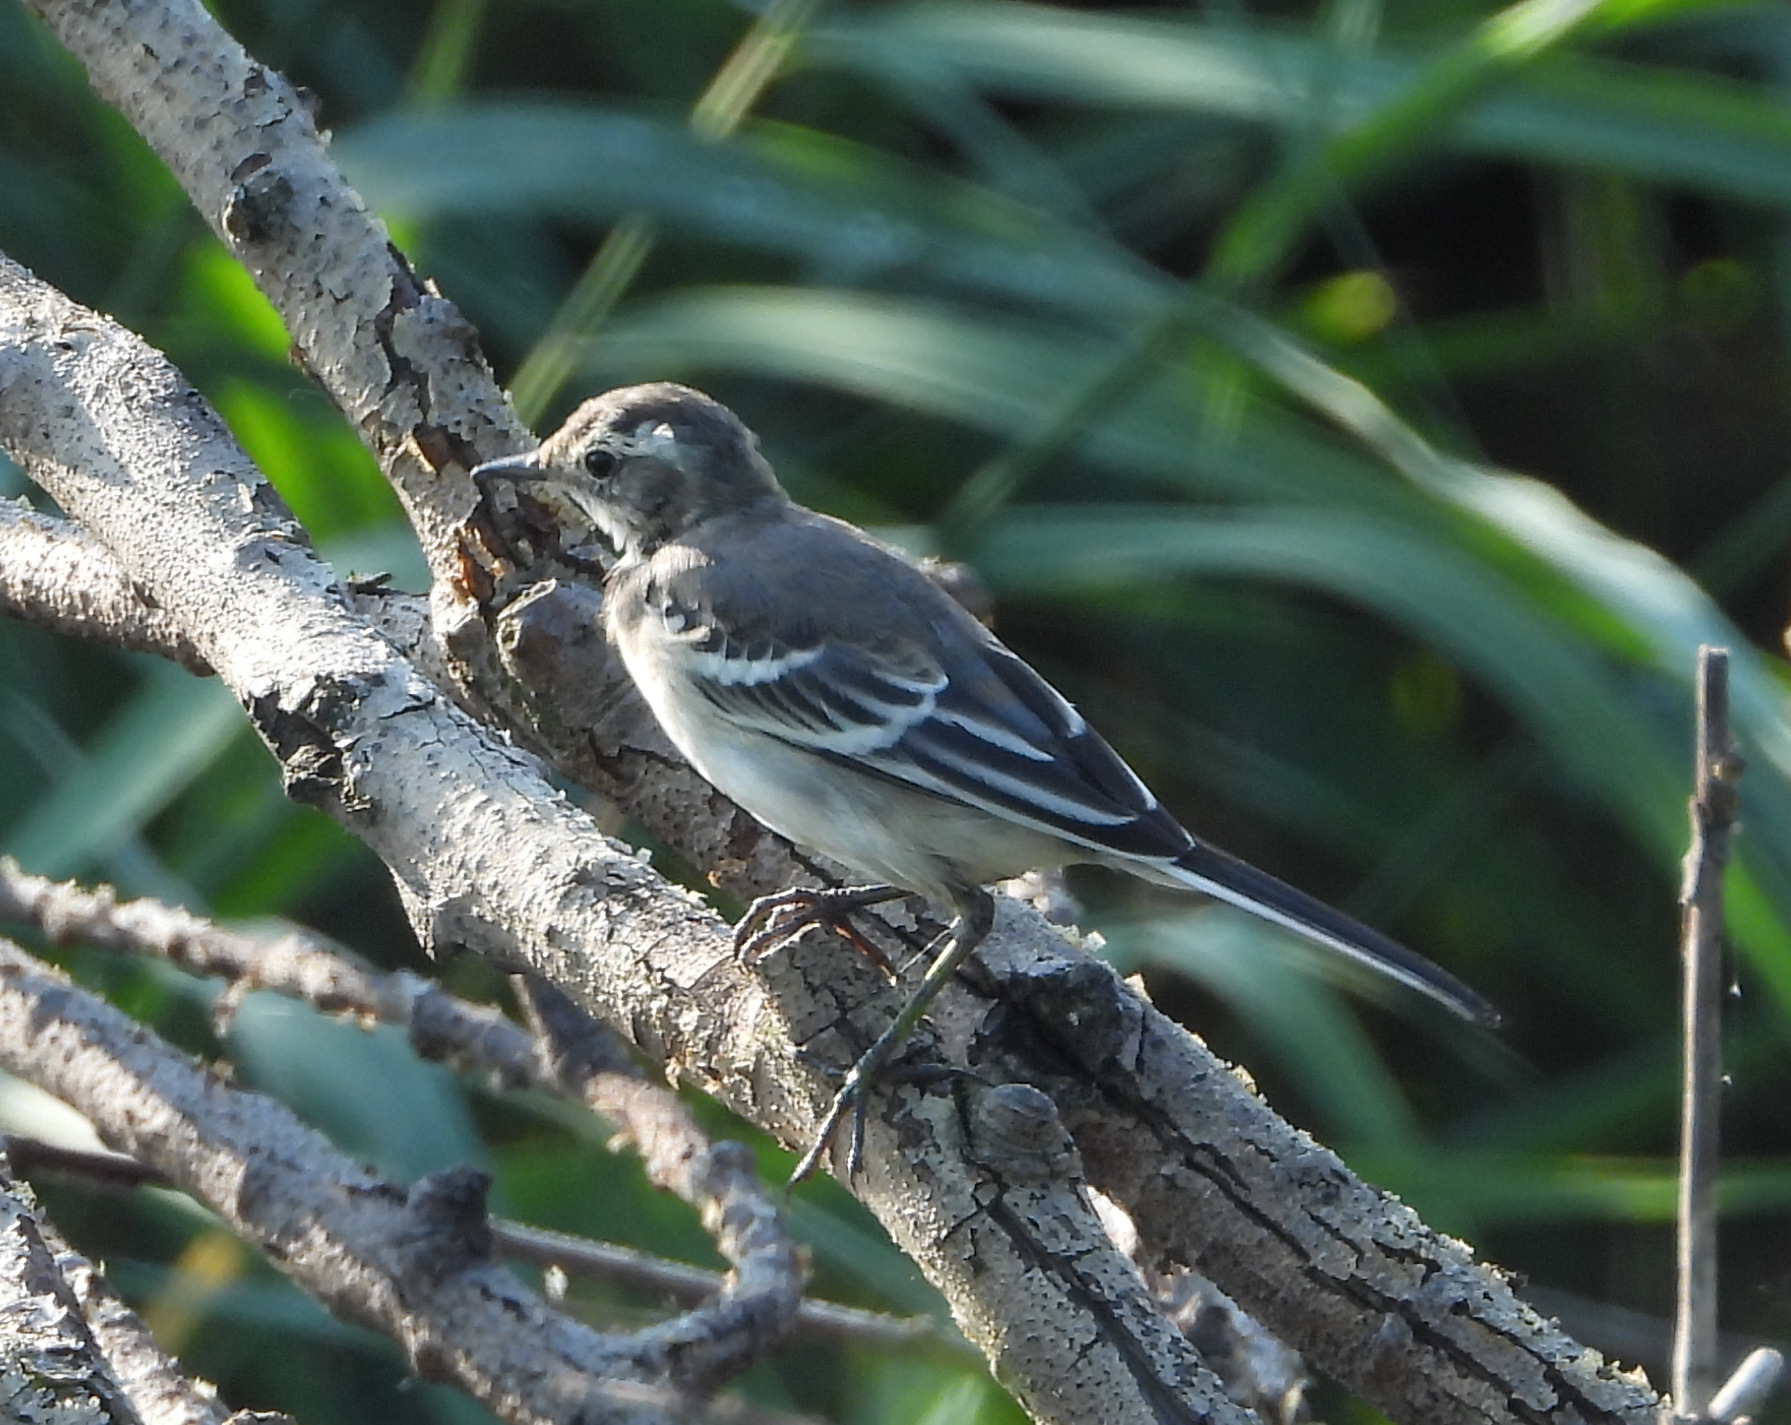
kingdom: Animalia
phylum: Chordata
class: Aves
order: Passeriformes
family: Motacillidae
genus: Motacilla
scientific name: Motacilla alba
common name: White wagtail
